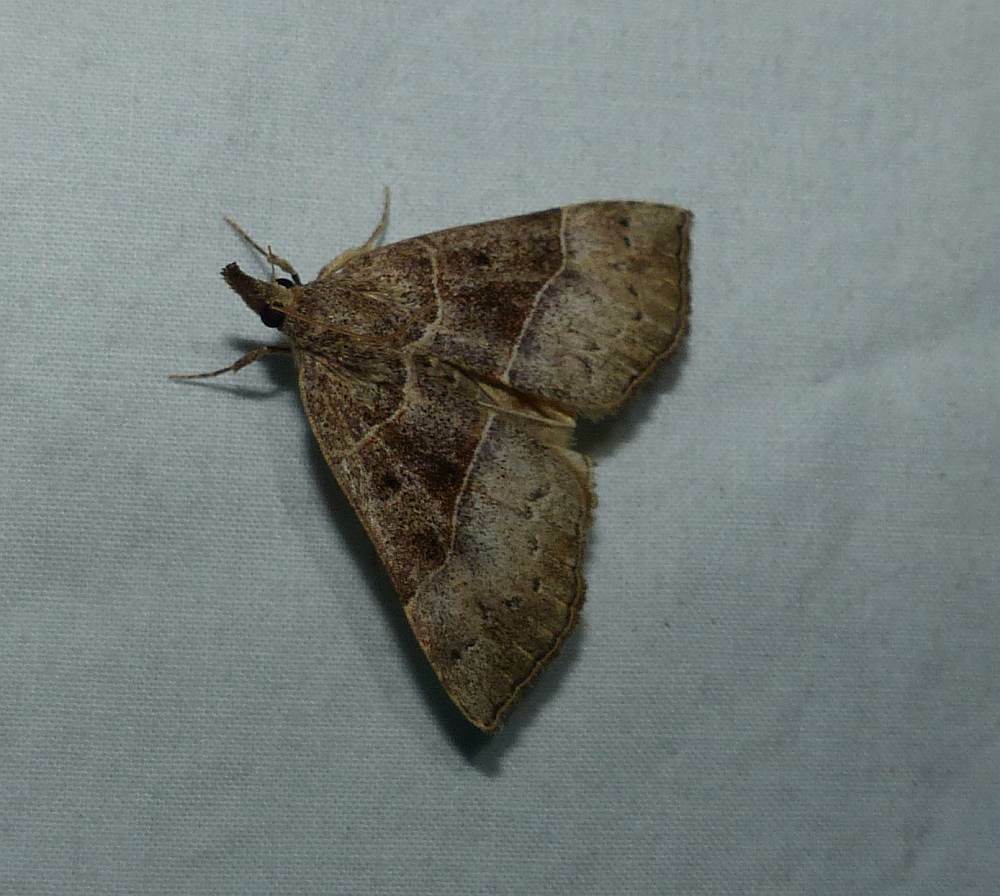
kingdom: Animalia
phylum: Arthropoda
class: Insecta
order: Lepidoptera
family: Erebidae
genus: Hypena
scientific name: Hypena deceptalis
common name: Deceptive snout
